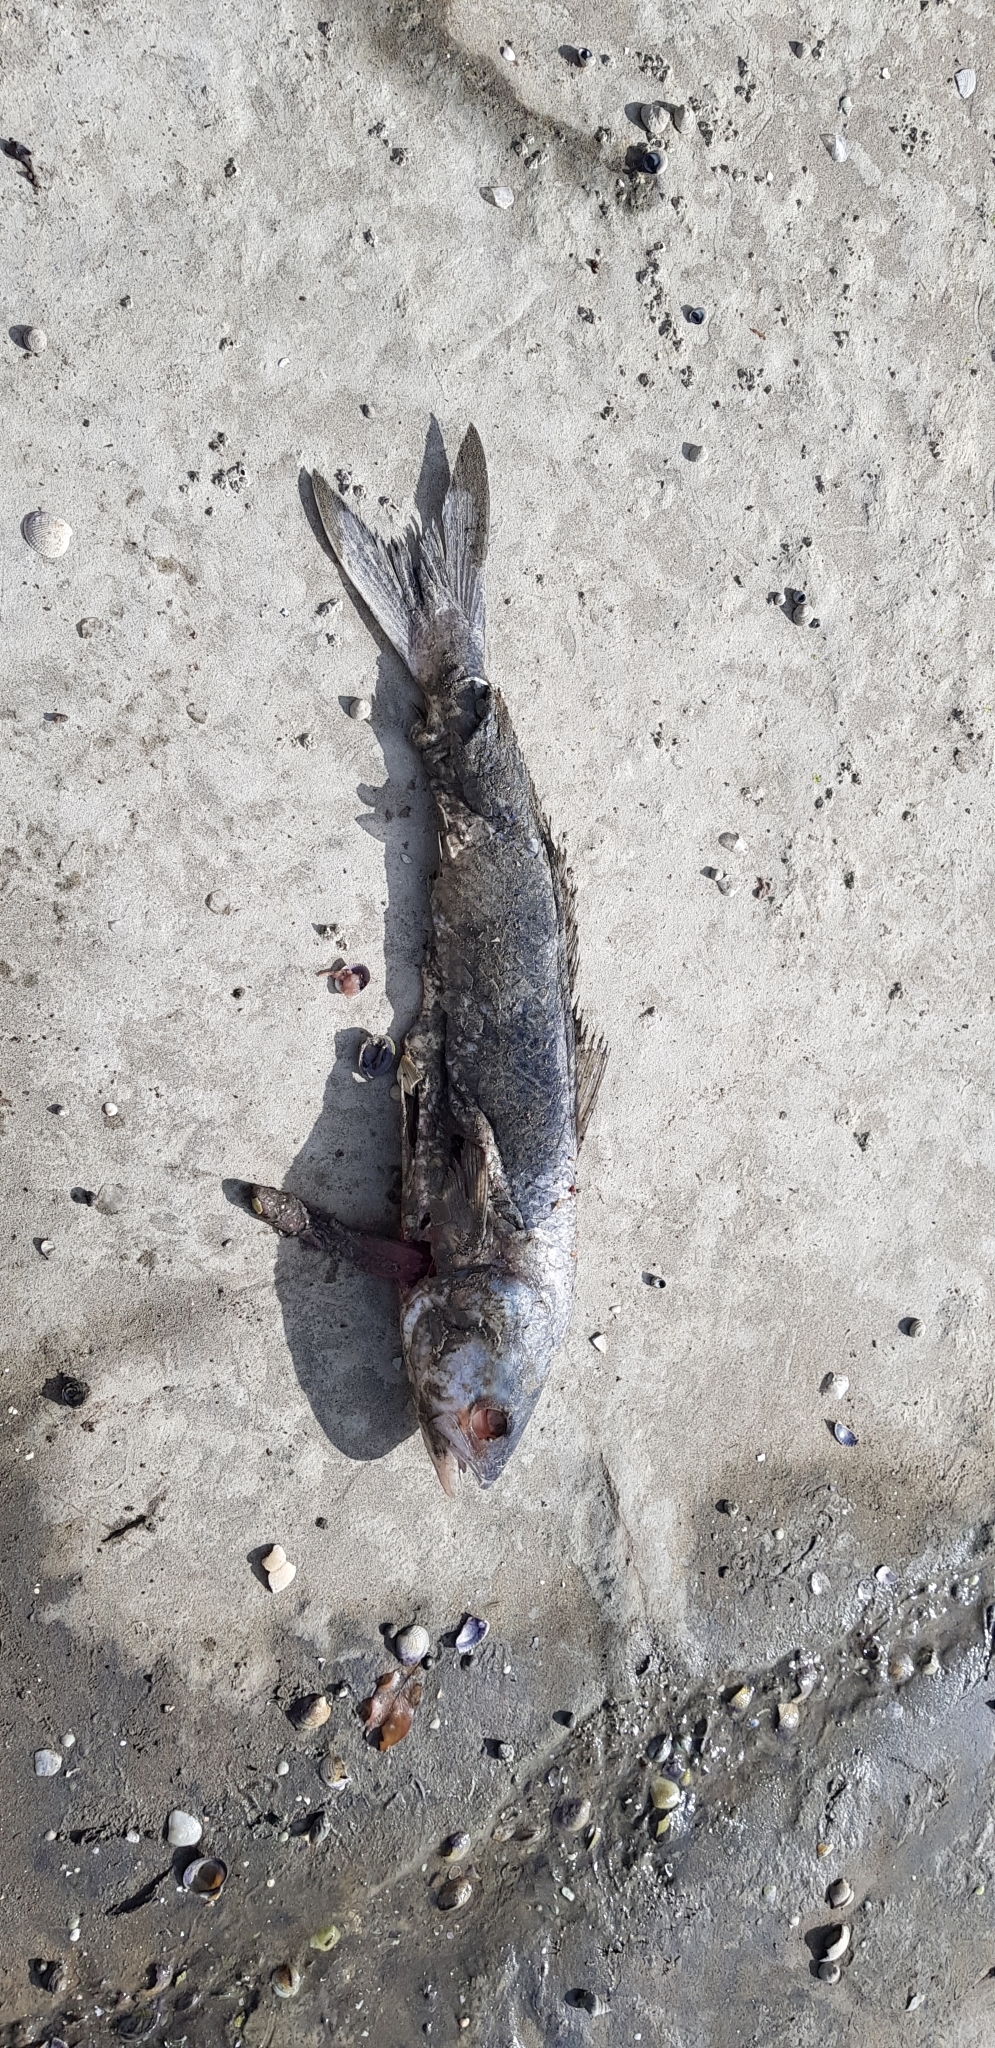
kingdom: Animalia
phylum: Chordata
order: Perciformes
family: Arripidae
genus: Arripis
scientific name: Arripis trutta
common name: Kahawai
